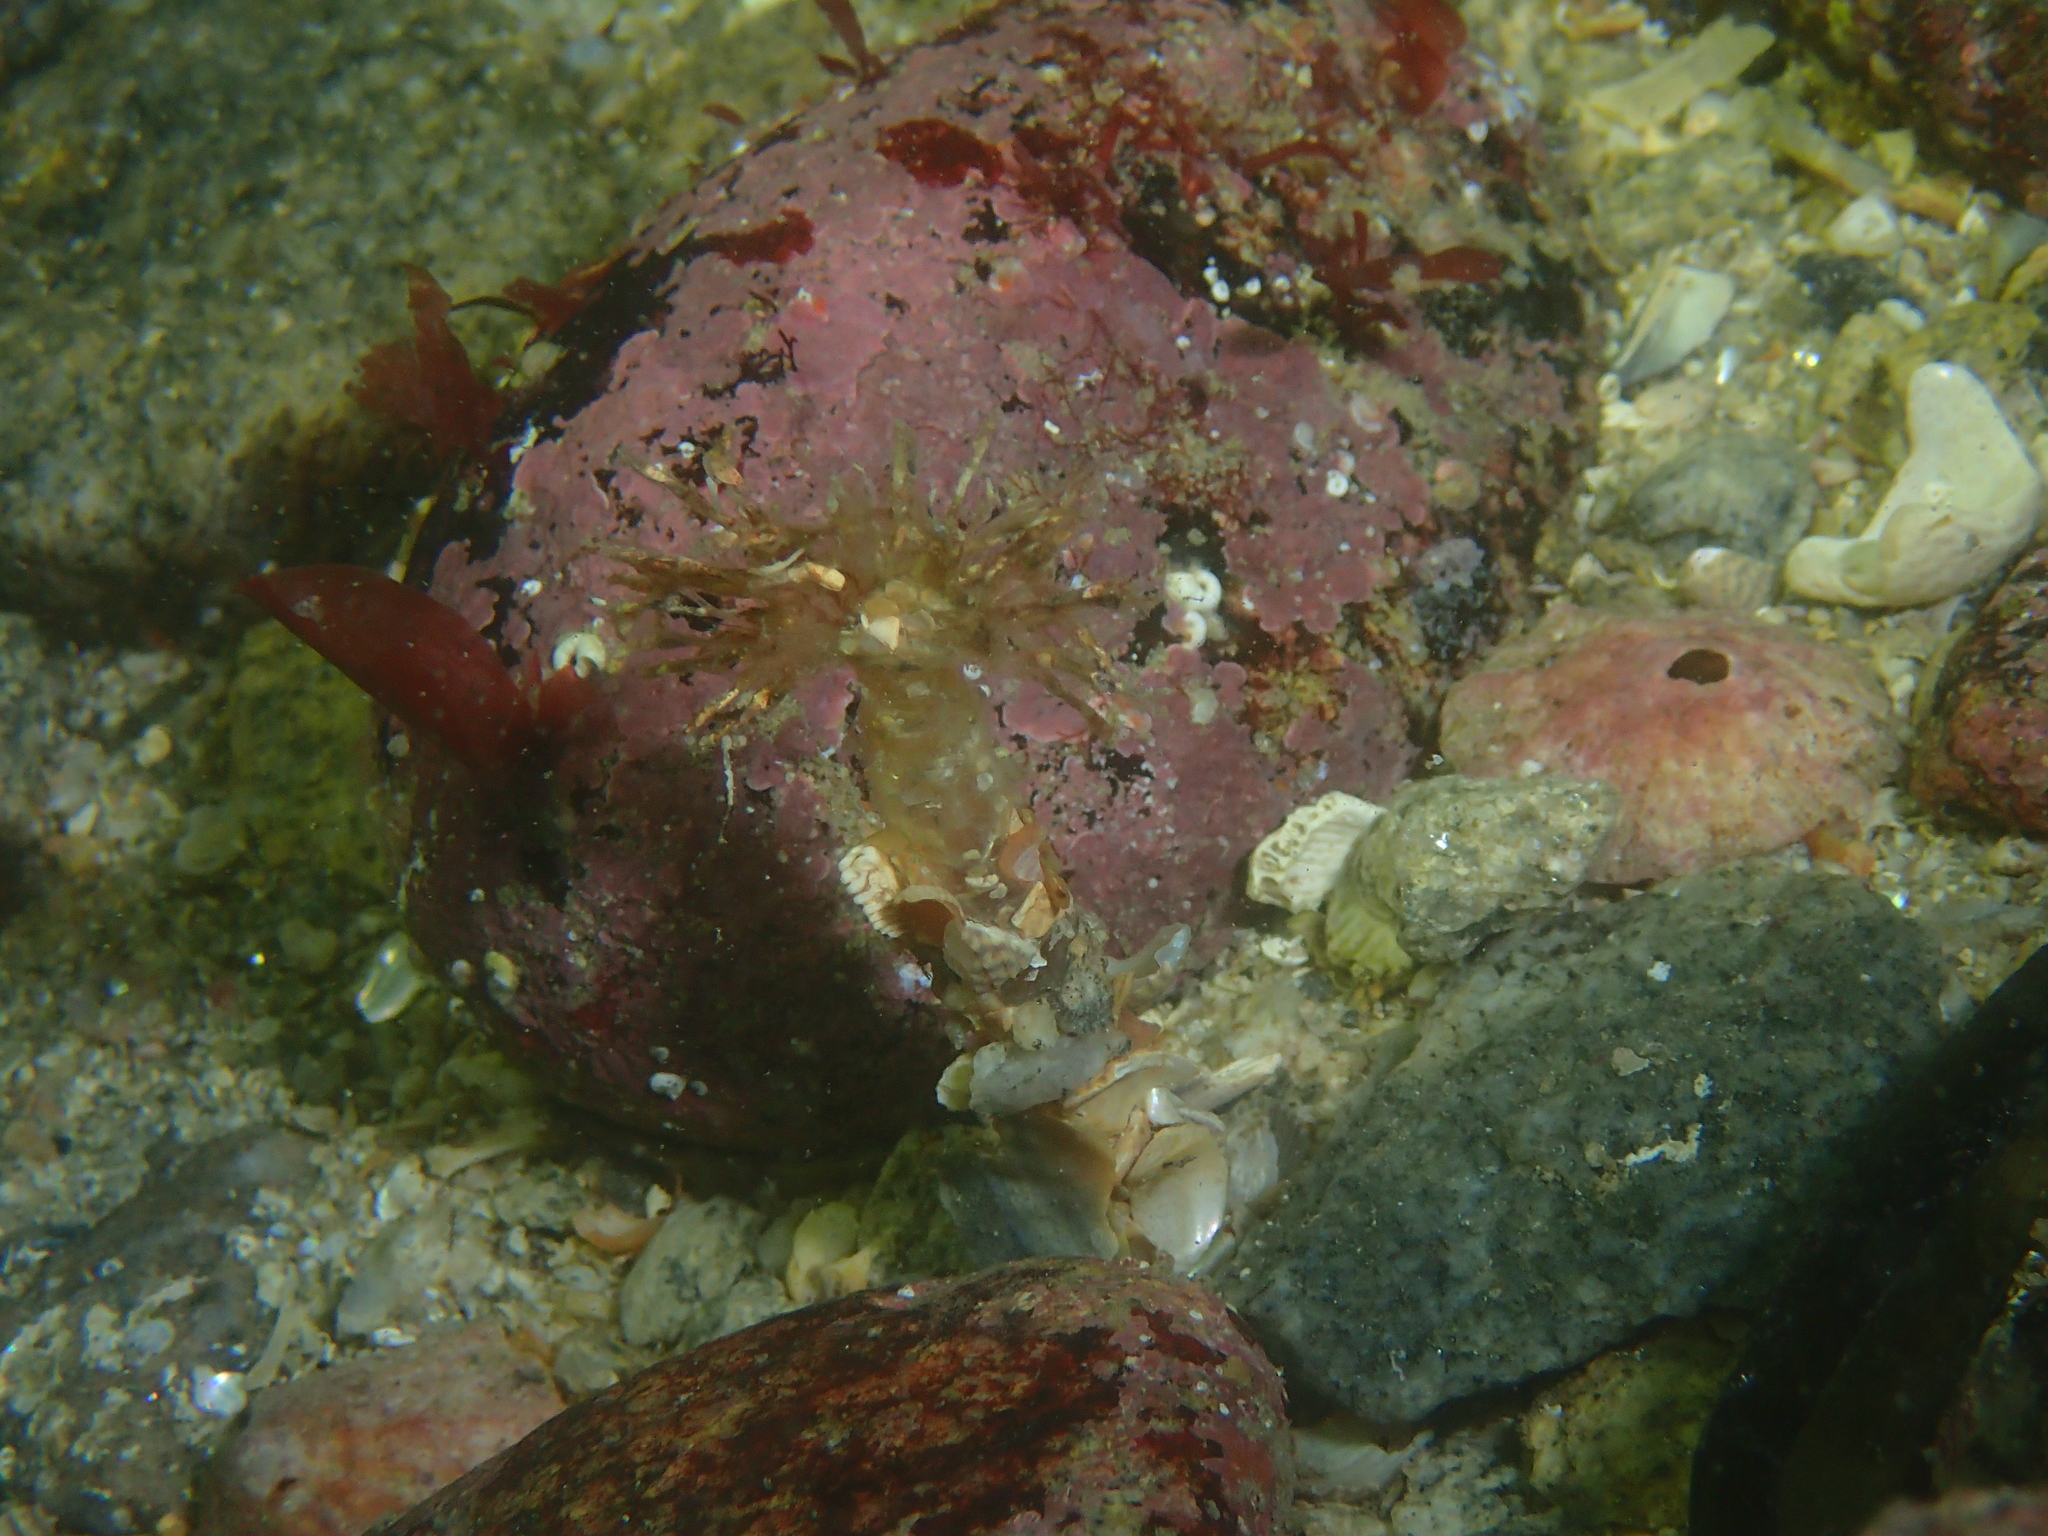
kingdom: Animalia
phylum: Annelida
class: Polychaeta
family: Terebellidae
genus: Lanice
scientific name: Lanice conchilega
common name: Sand mason
